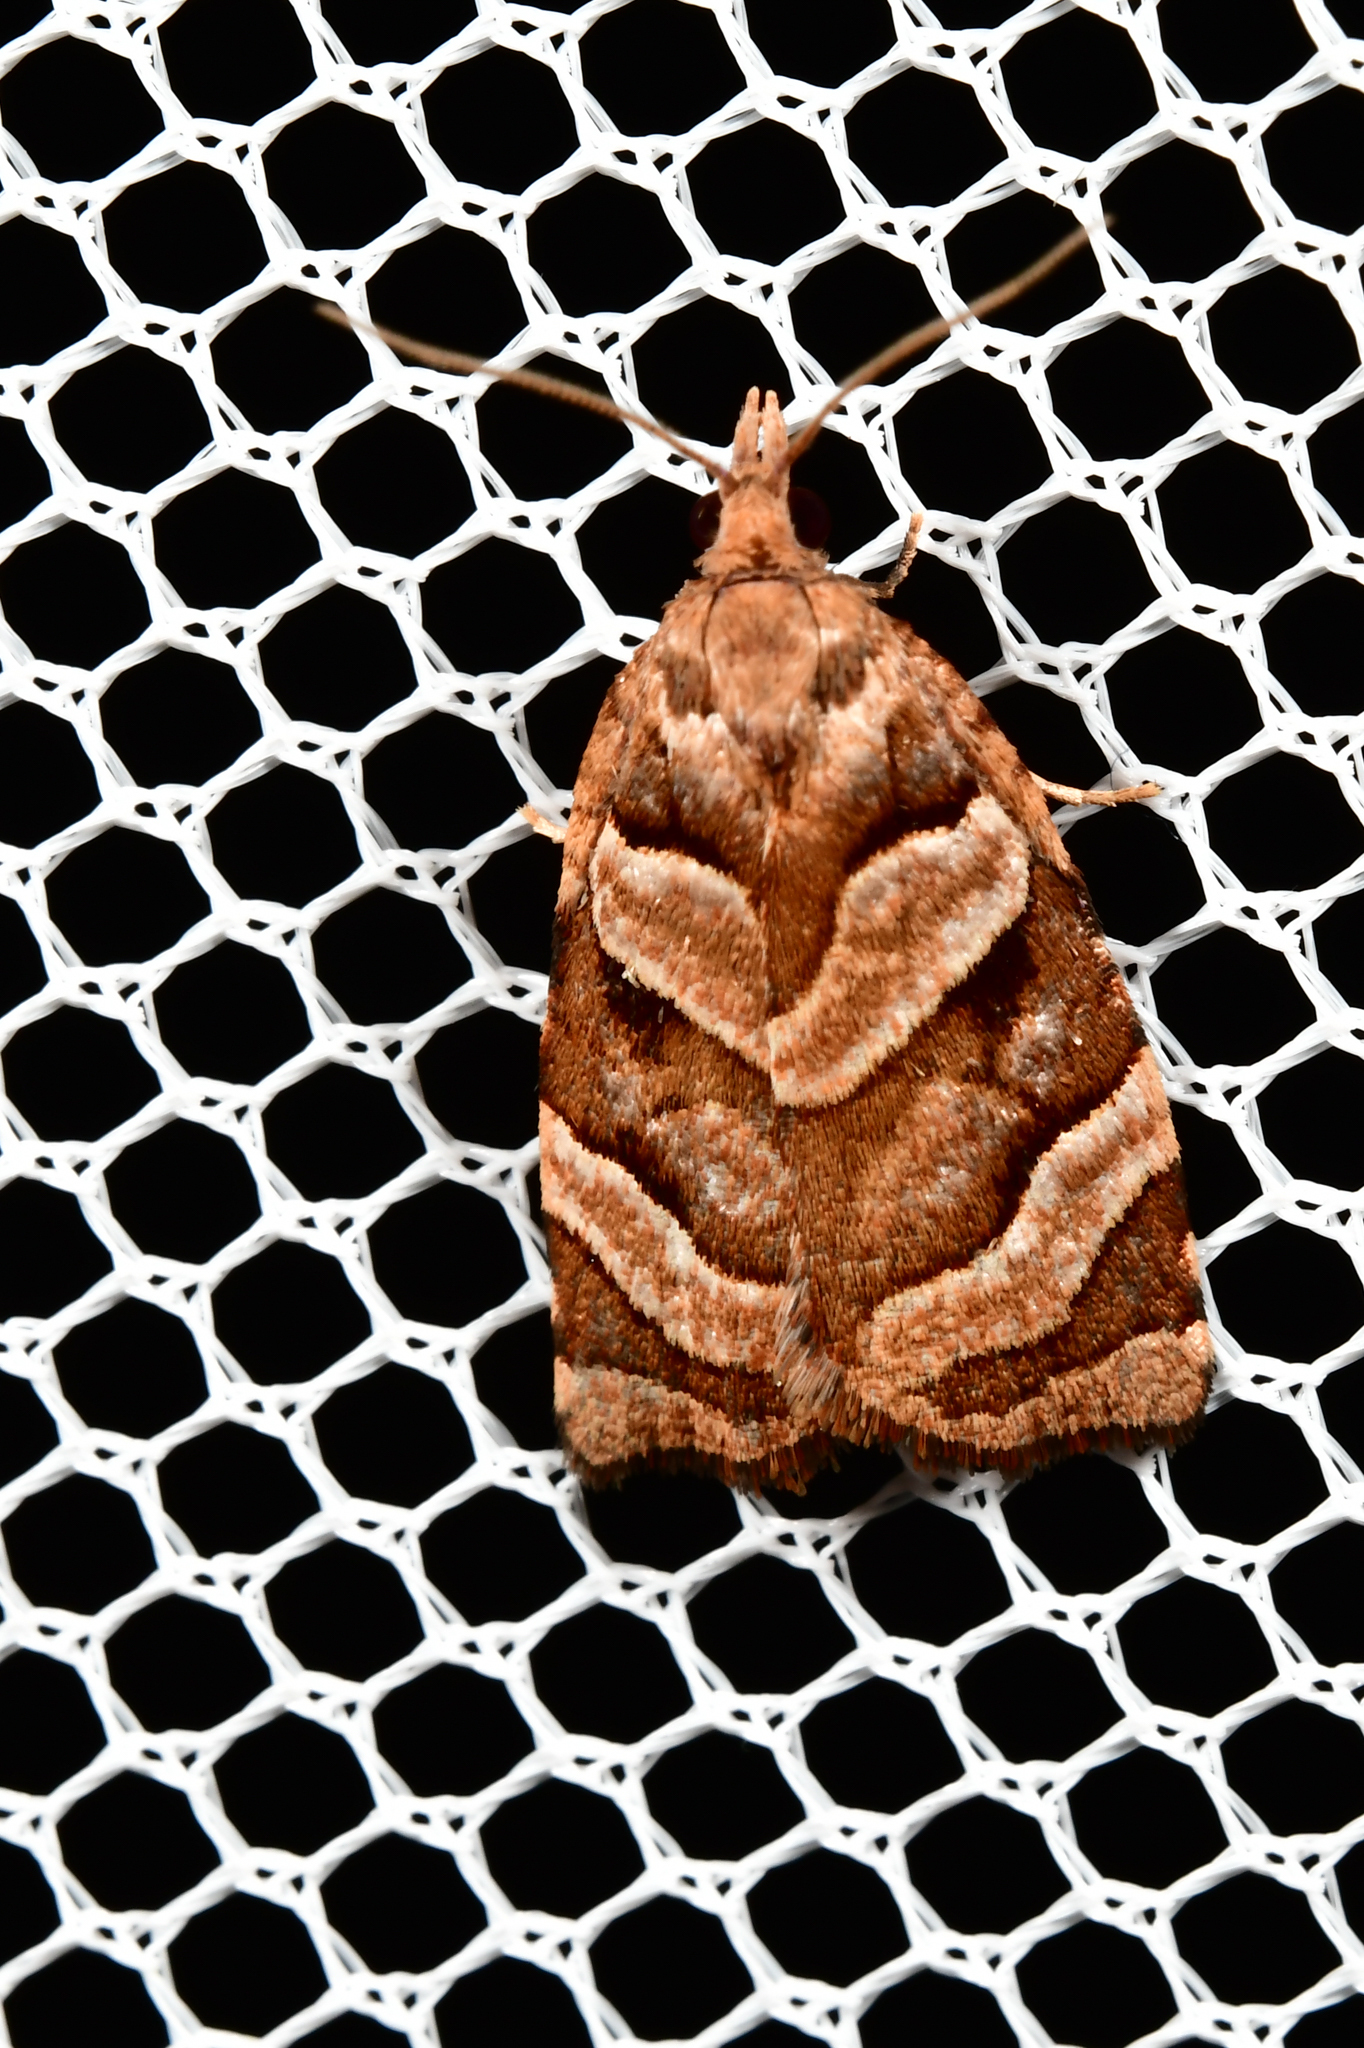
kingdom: Animalia
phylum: Arthropoda
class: Insecta
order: Lepidoptera
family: Tortricidae
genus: Apoctena
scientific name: Apoctena tigris
